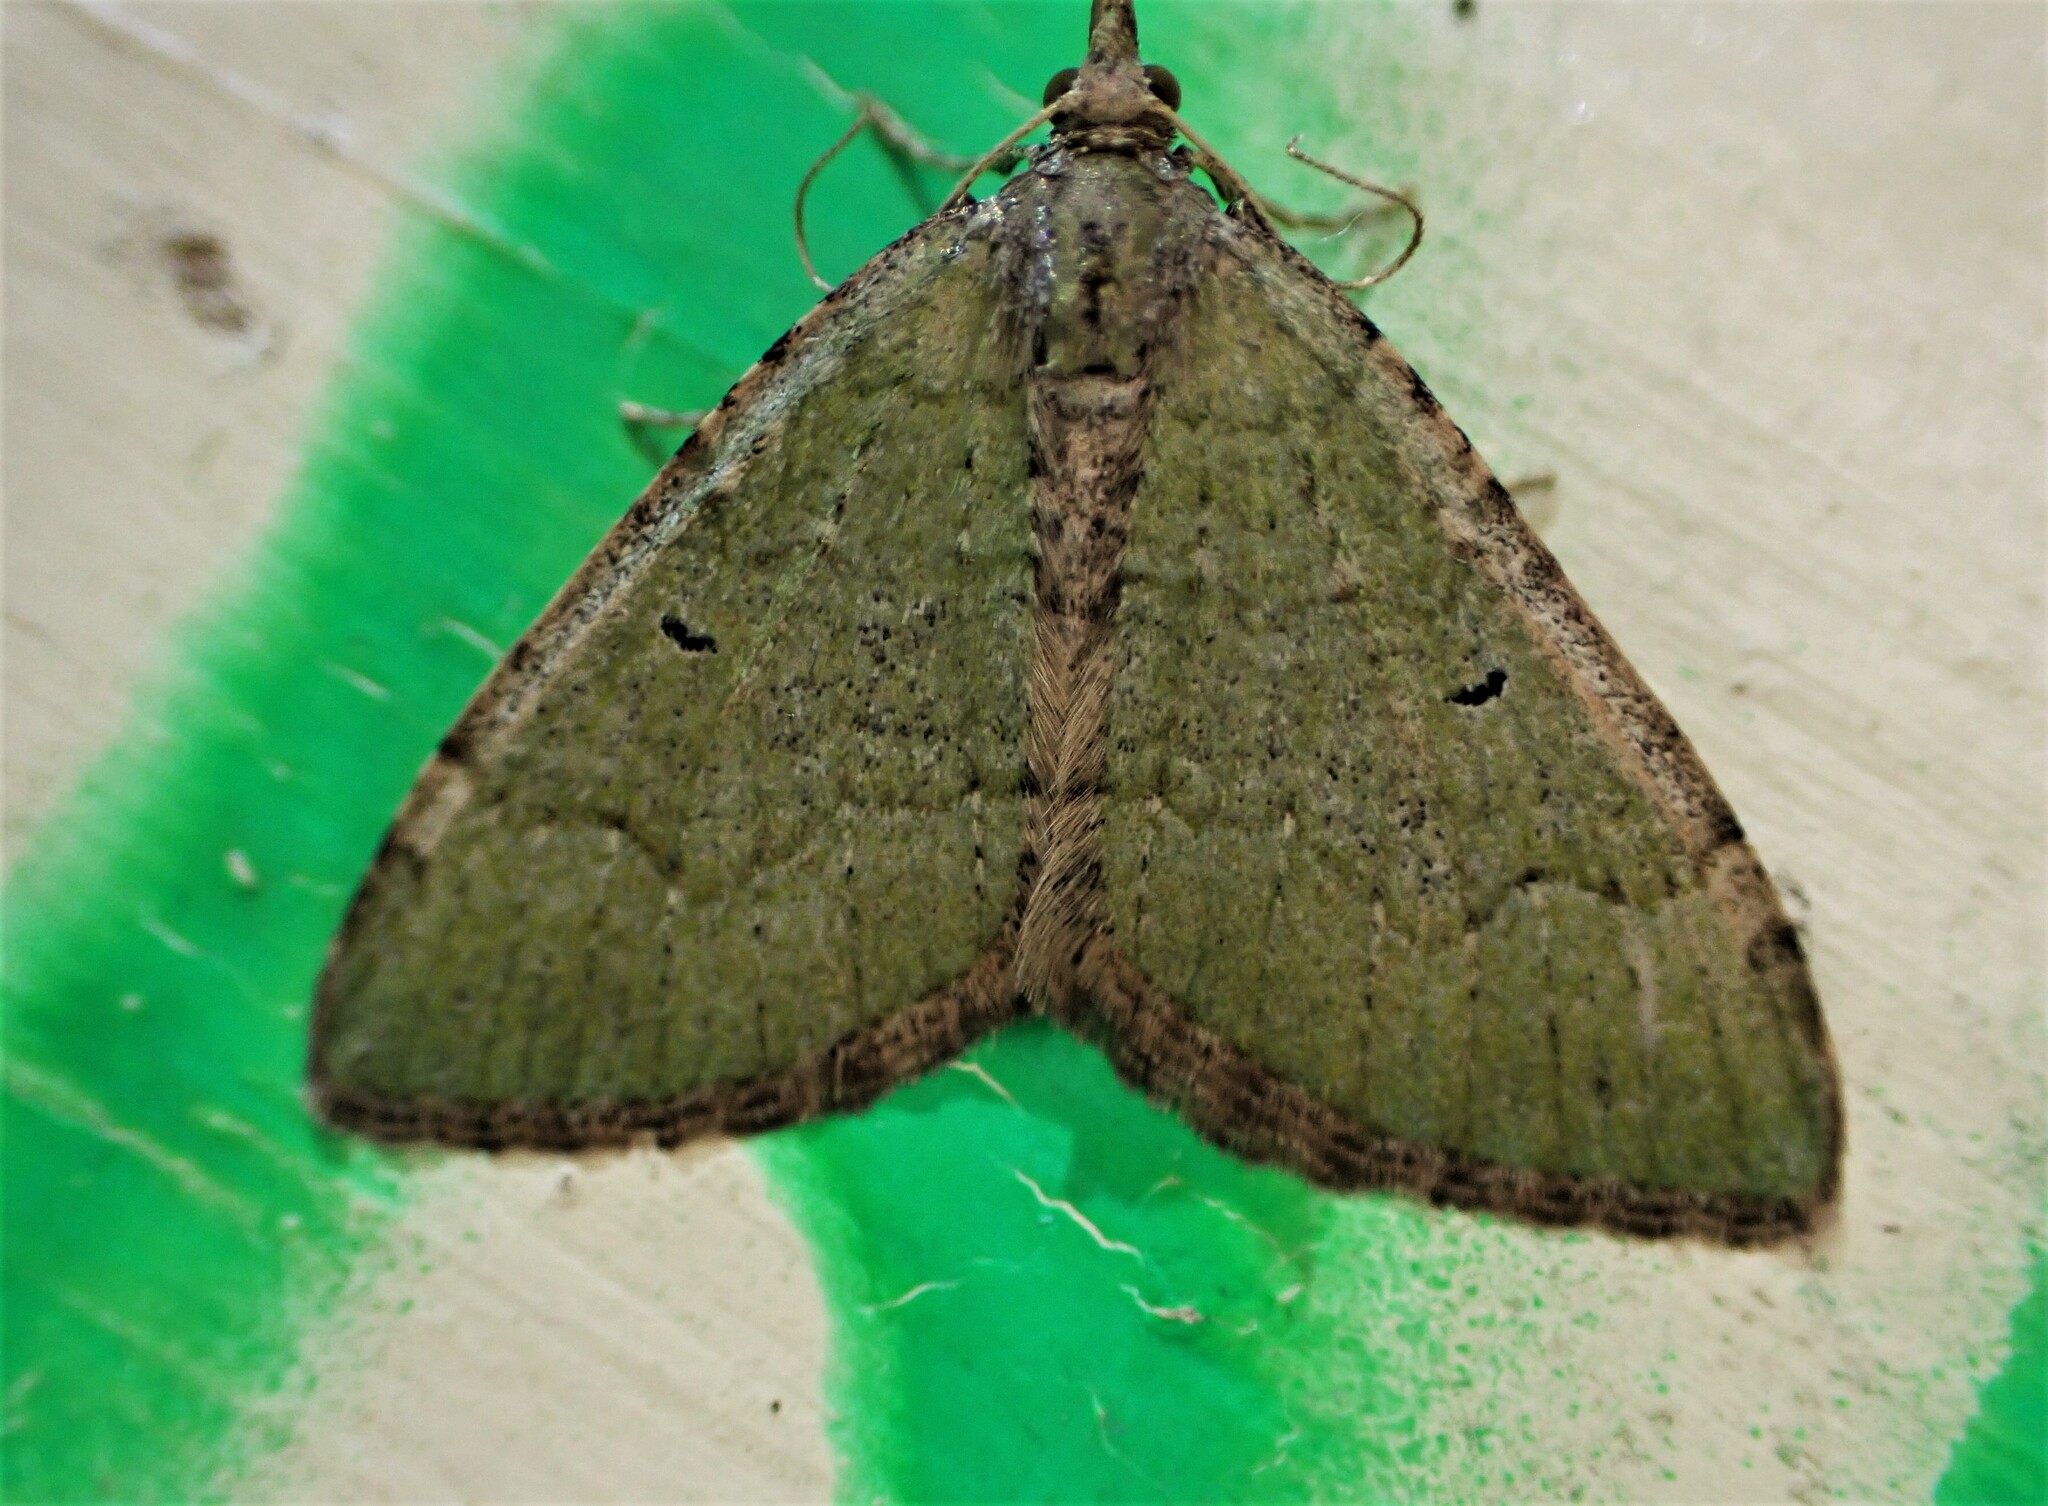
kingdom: Animalia
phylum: Arthropoda
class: Insecta
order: Lepidoptera
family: Geometridae
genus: Epyaxa
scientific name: Epyaxa rosearia
